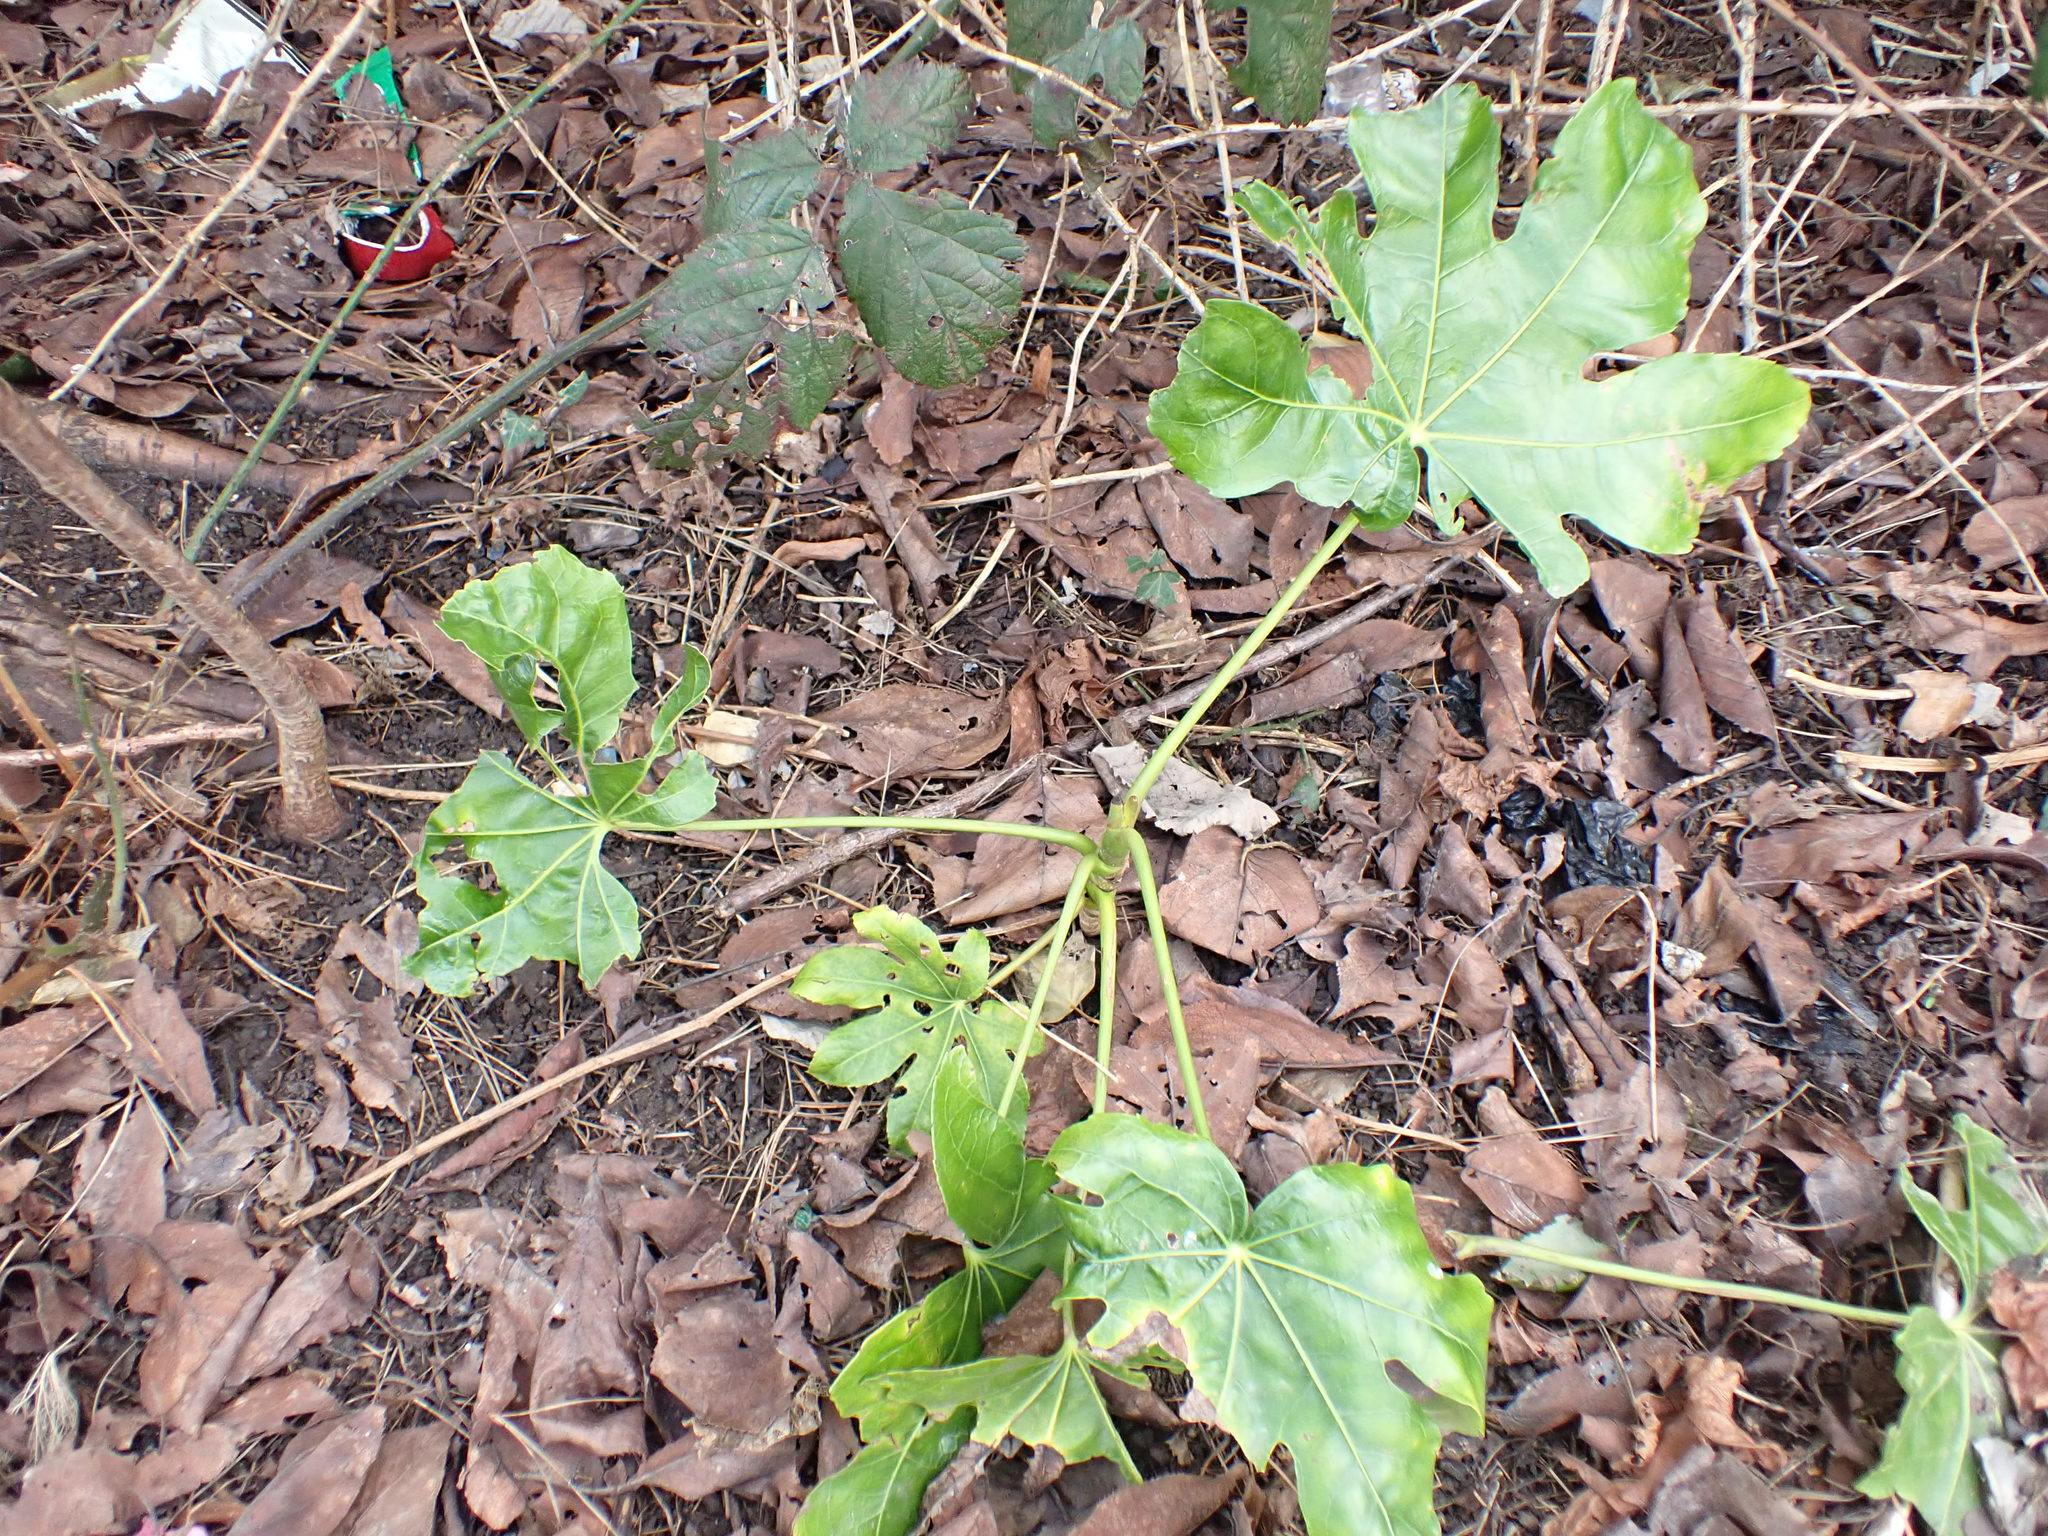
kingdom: Plantae
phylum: Tracheophyta
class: Magnoliopsida
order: Apiales
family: Araliaceae
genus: Fatsia
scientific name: Fatsia japonica
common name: Fatsia
